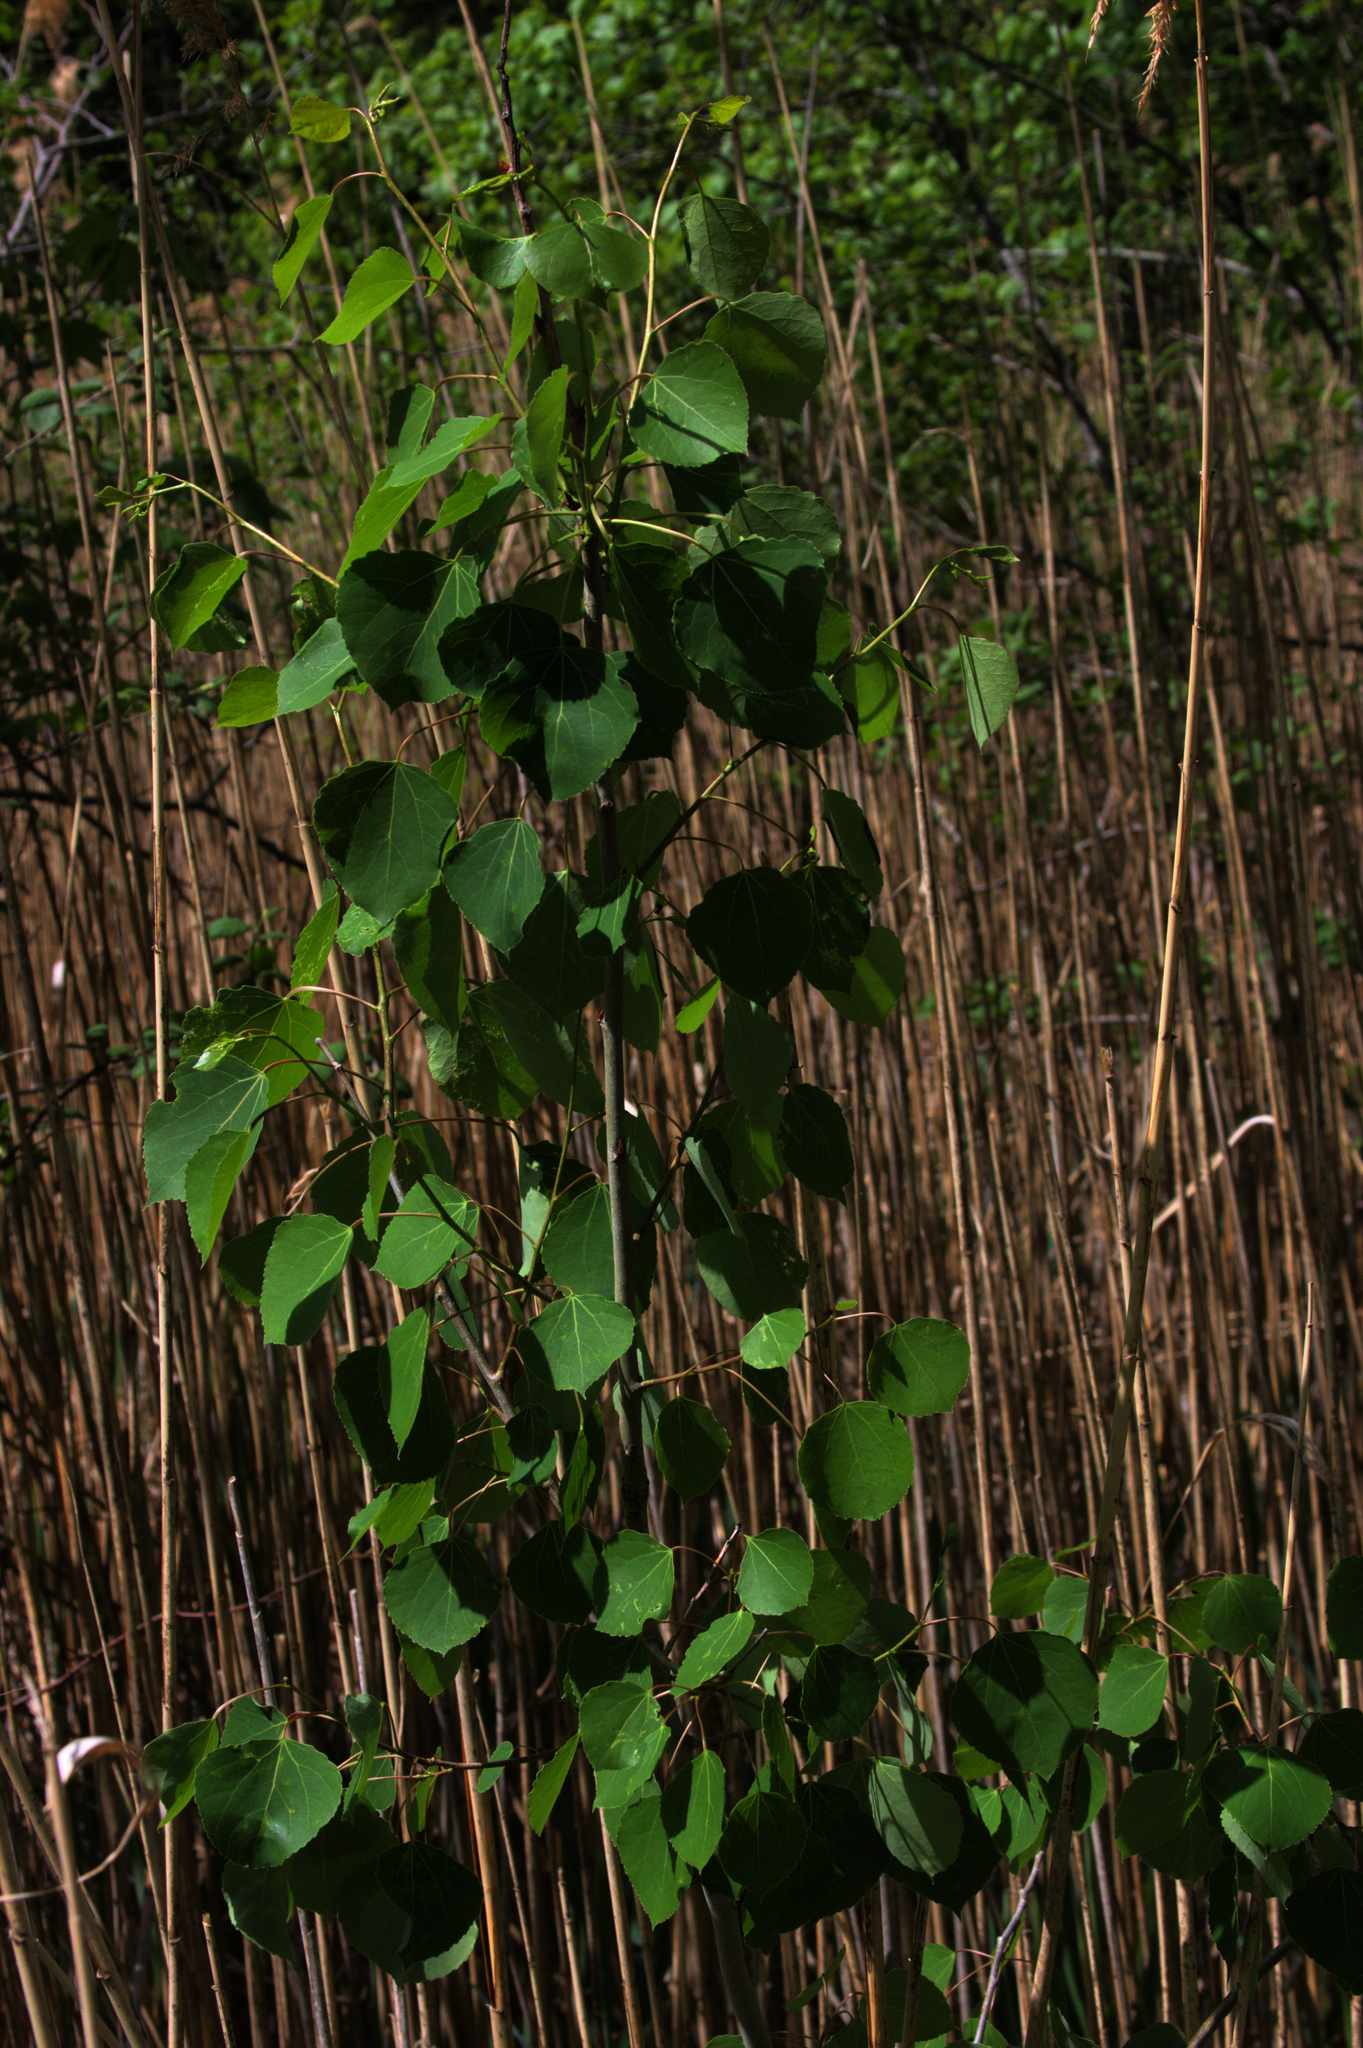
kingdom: Plantae
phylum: Tracheophyta
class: Magnoliopsida
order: Malpighiales
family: Salicaceae
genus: Populus
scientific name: Populus tremuloides
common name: Quaking aspen
